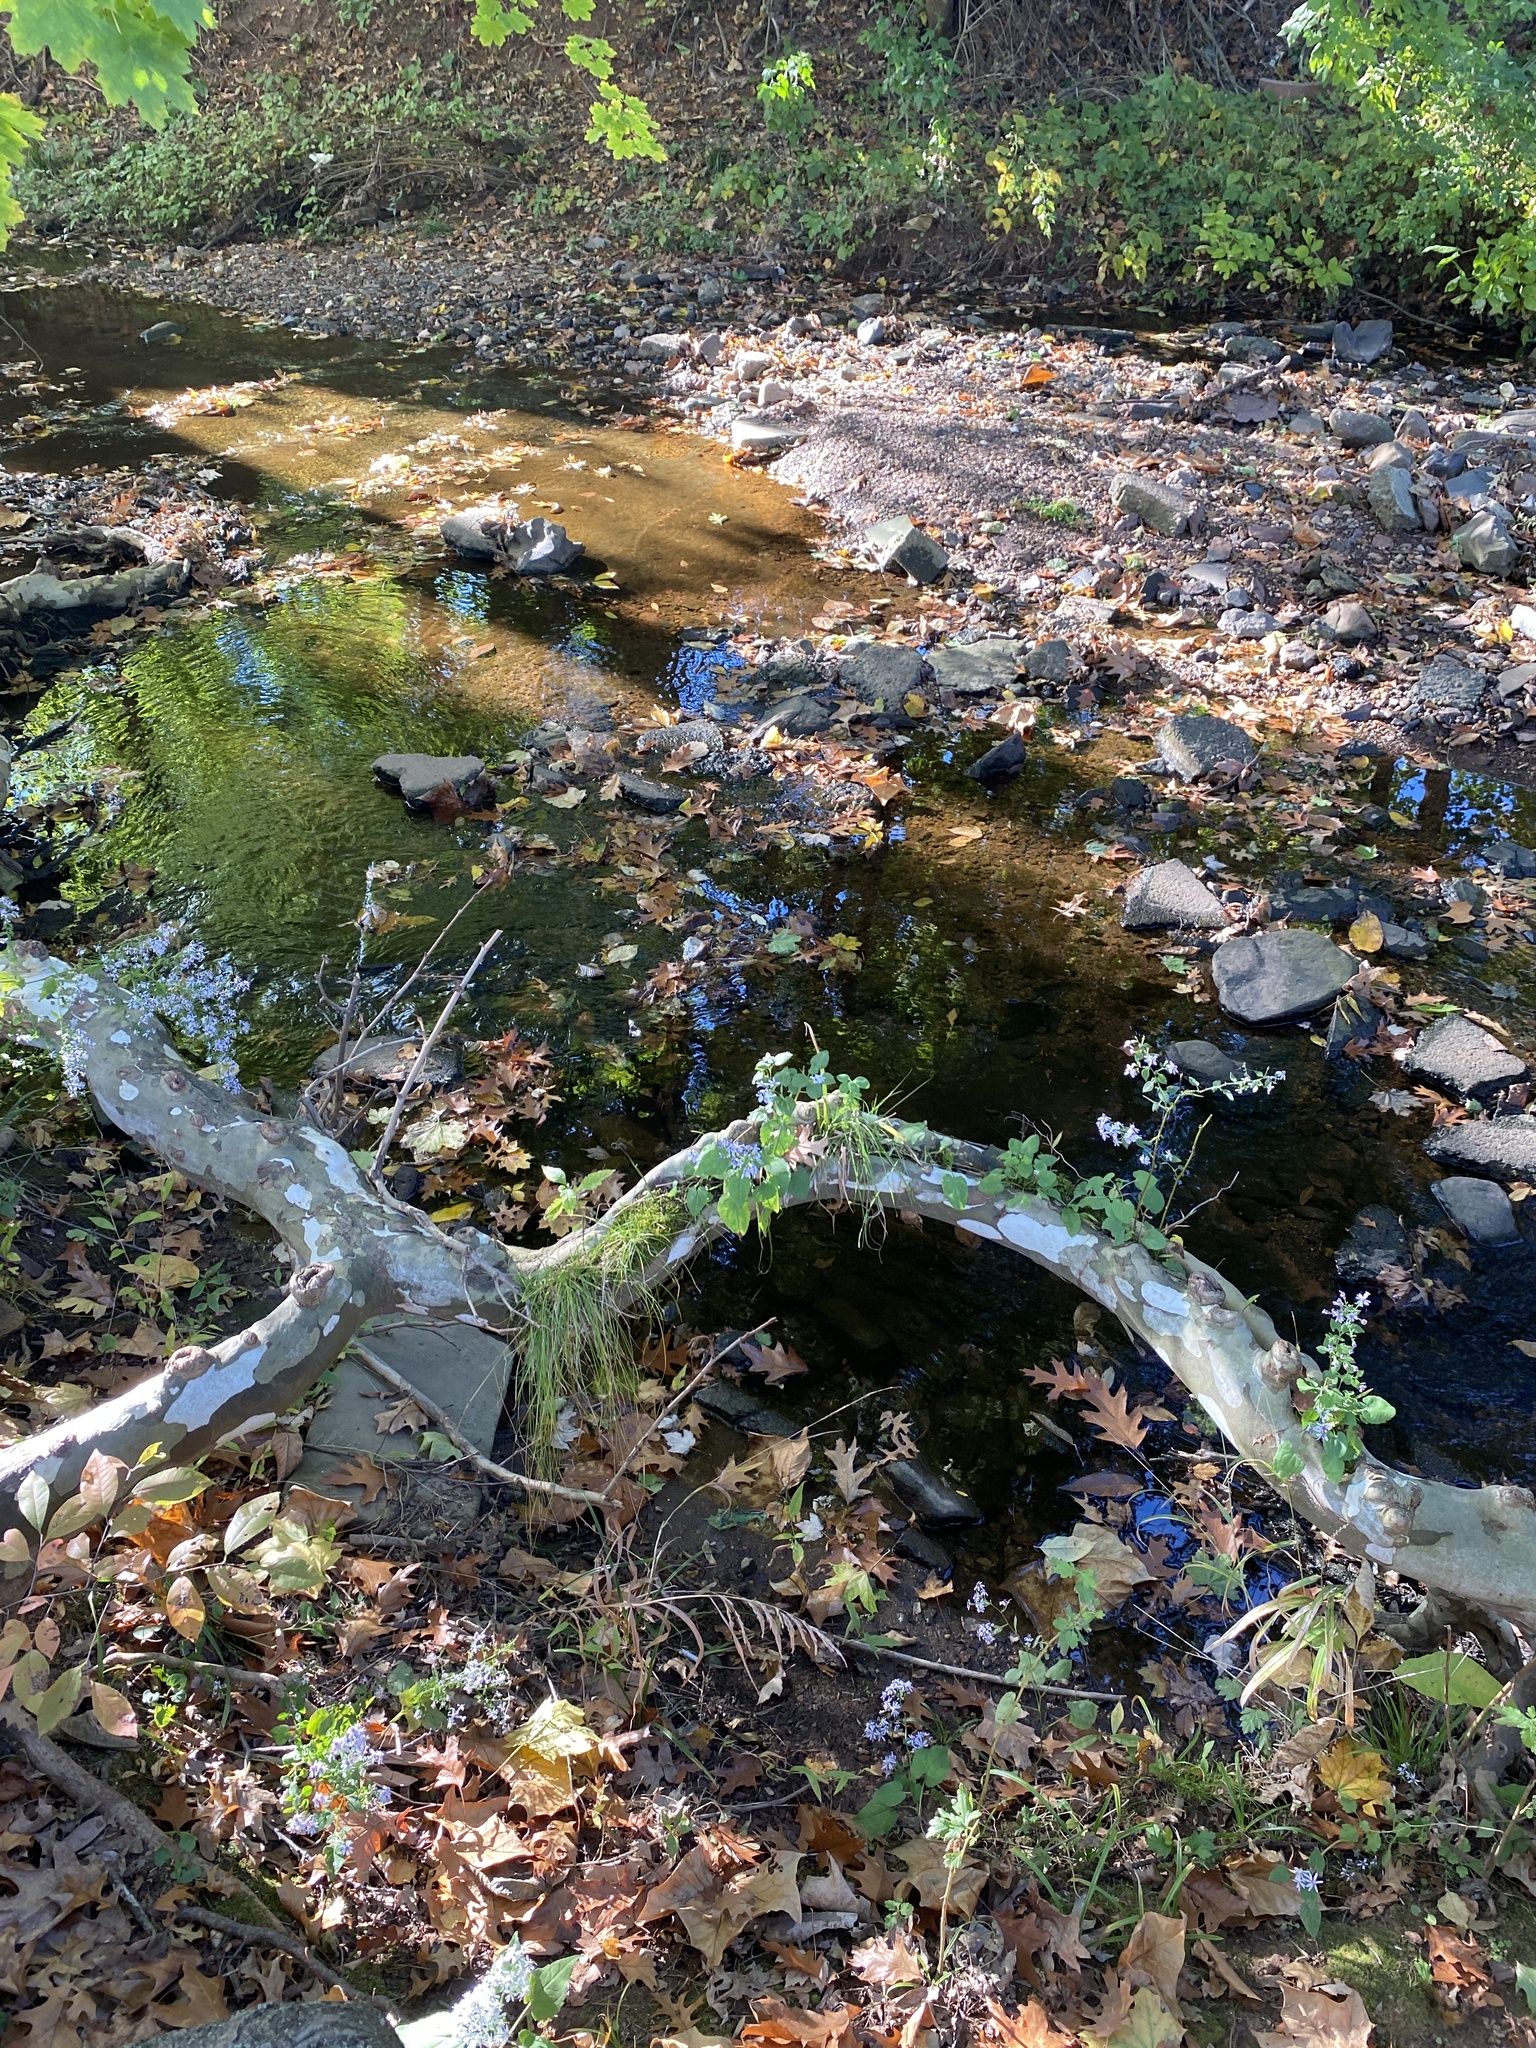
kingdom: Plantae
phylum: Tracheophyta
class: Magnoliopsida
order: Asterales
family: Asteraceae
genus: Symphyotrichum
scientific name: Symphyotrichum cordifolium
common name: Beeweed
